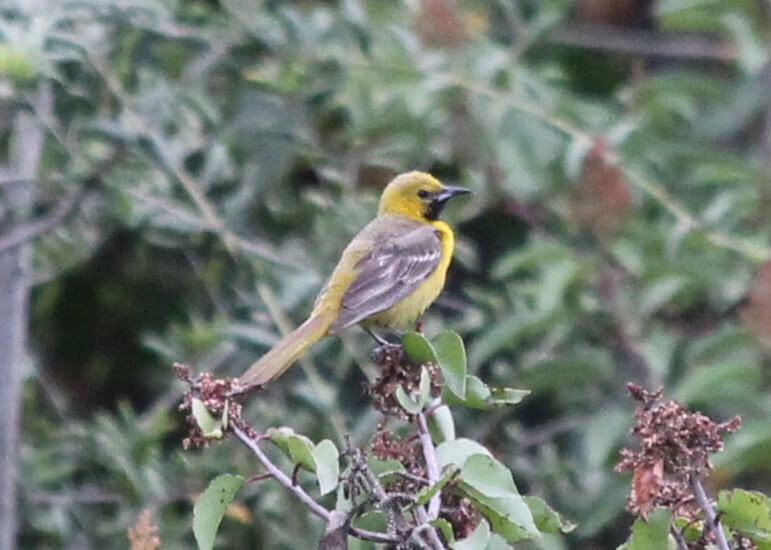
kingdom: Animalia
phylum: Chordata
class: Aves
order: Passeriformes
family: Icteridae
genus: Icterus
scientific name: Icterus cucullatus
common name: Hooded oriole
